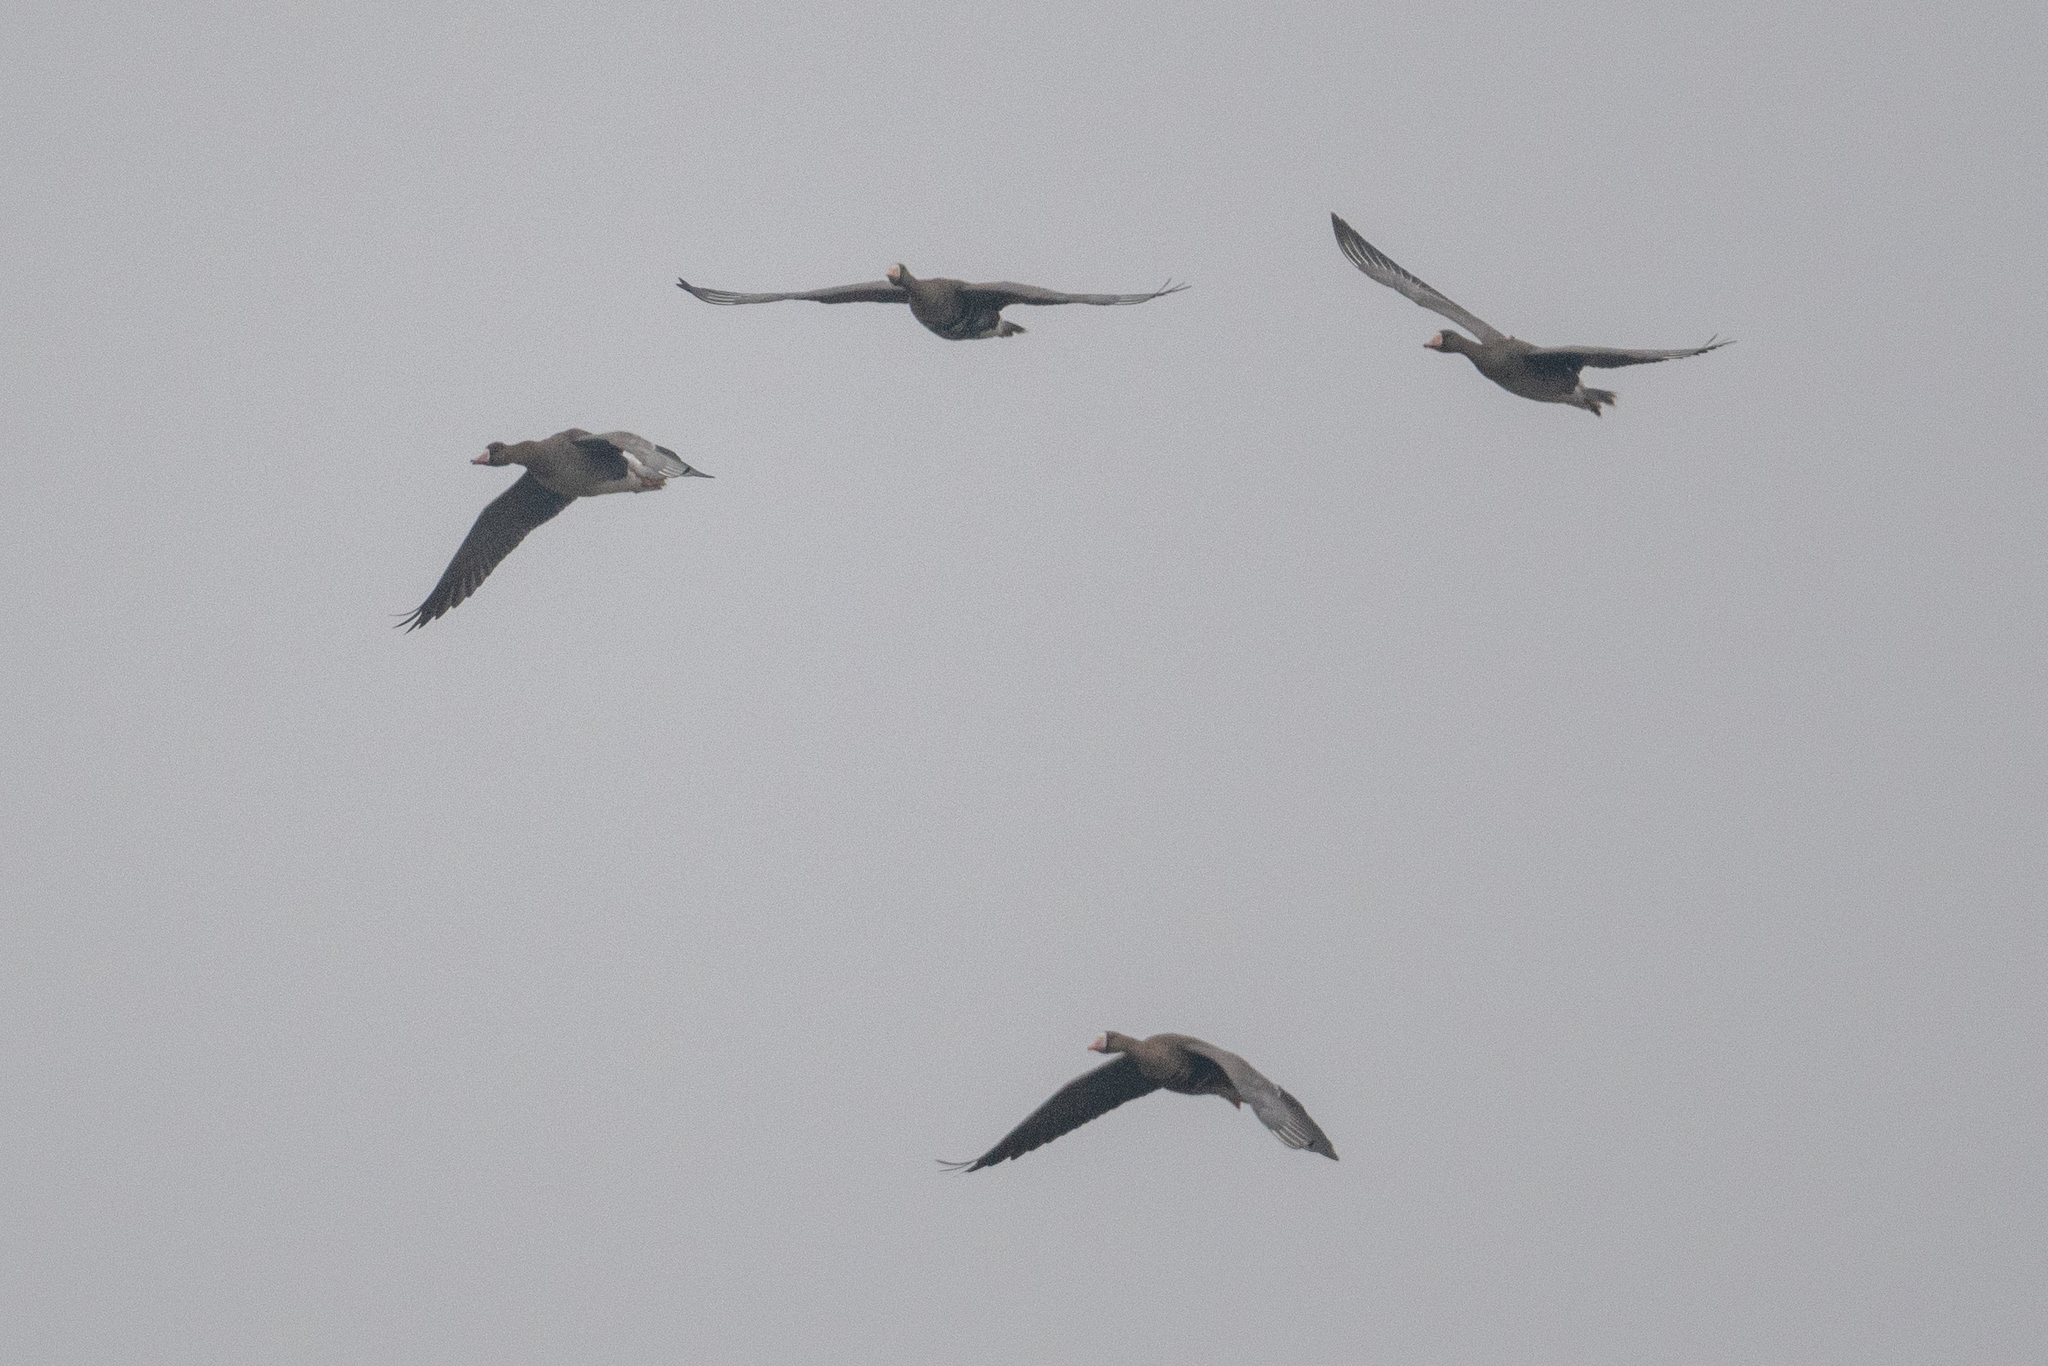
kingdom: Animalia
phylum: Chordata
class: Aves
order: Anseriformes
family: Anatidae
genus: Anser
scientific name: Anser albifrons
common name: Greater white-fronted goose
